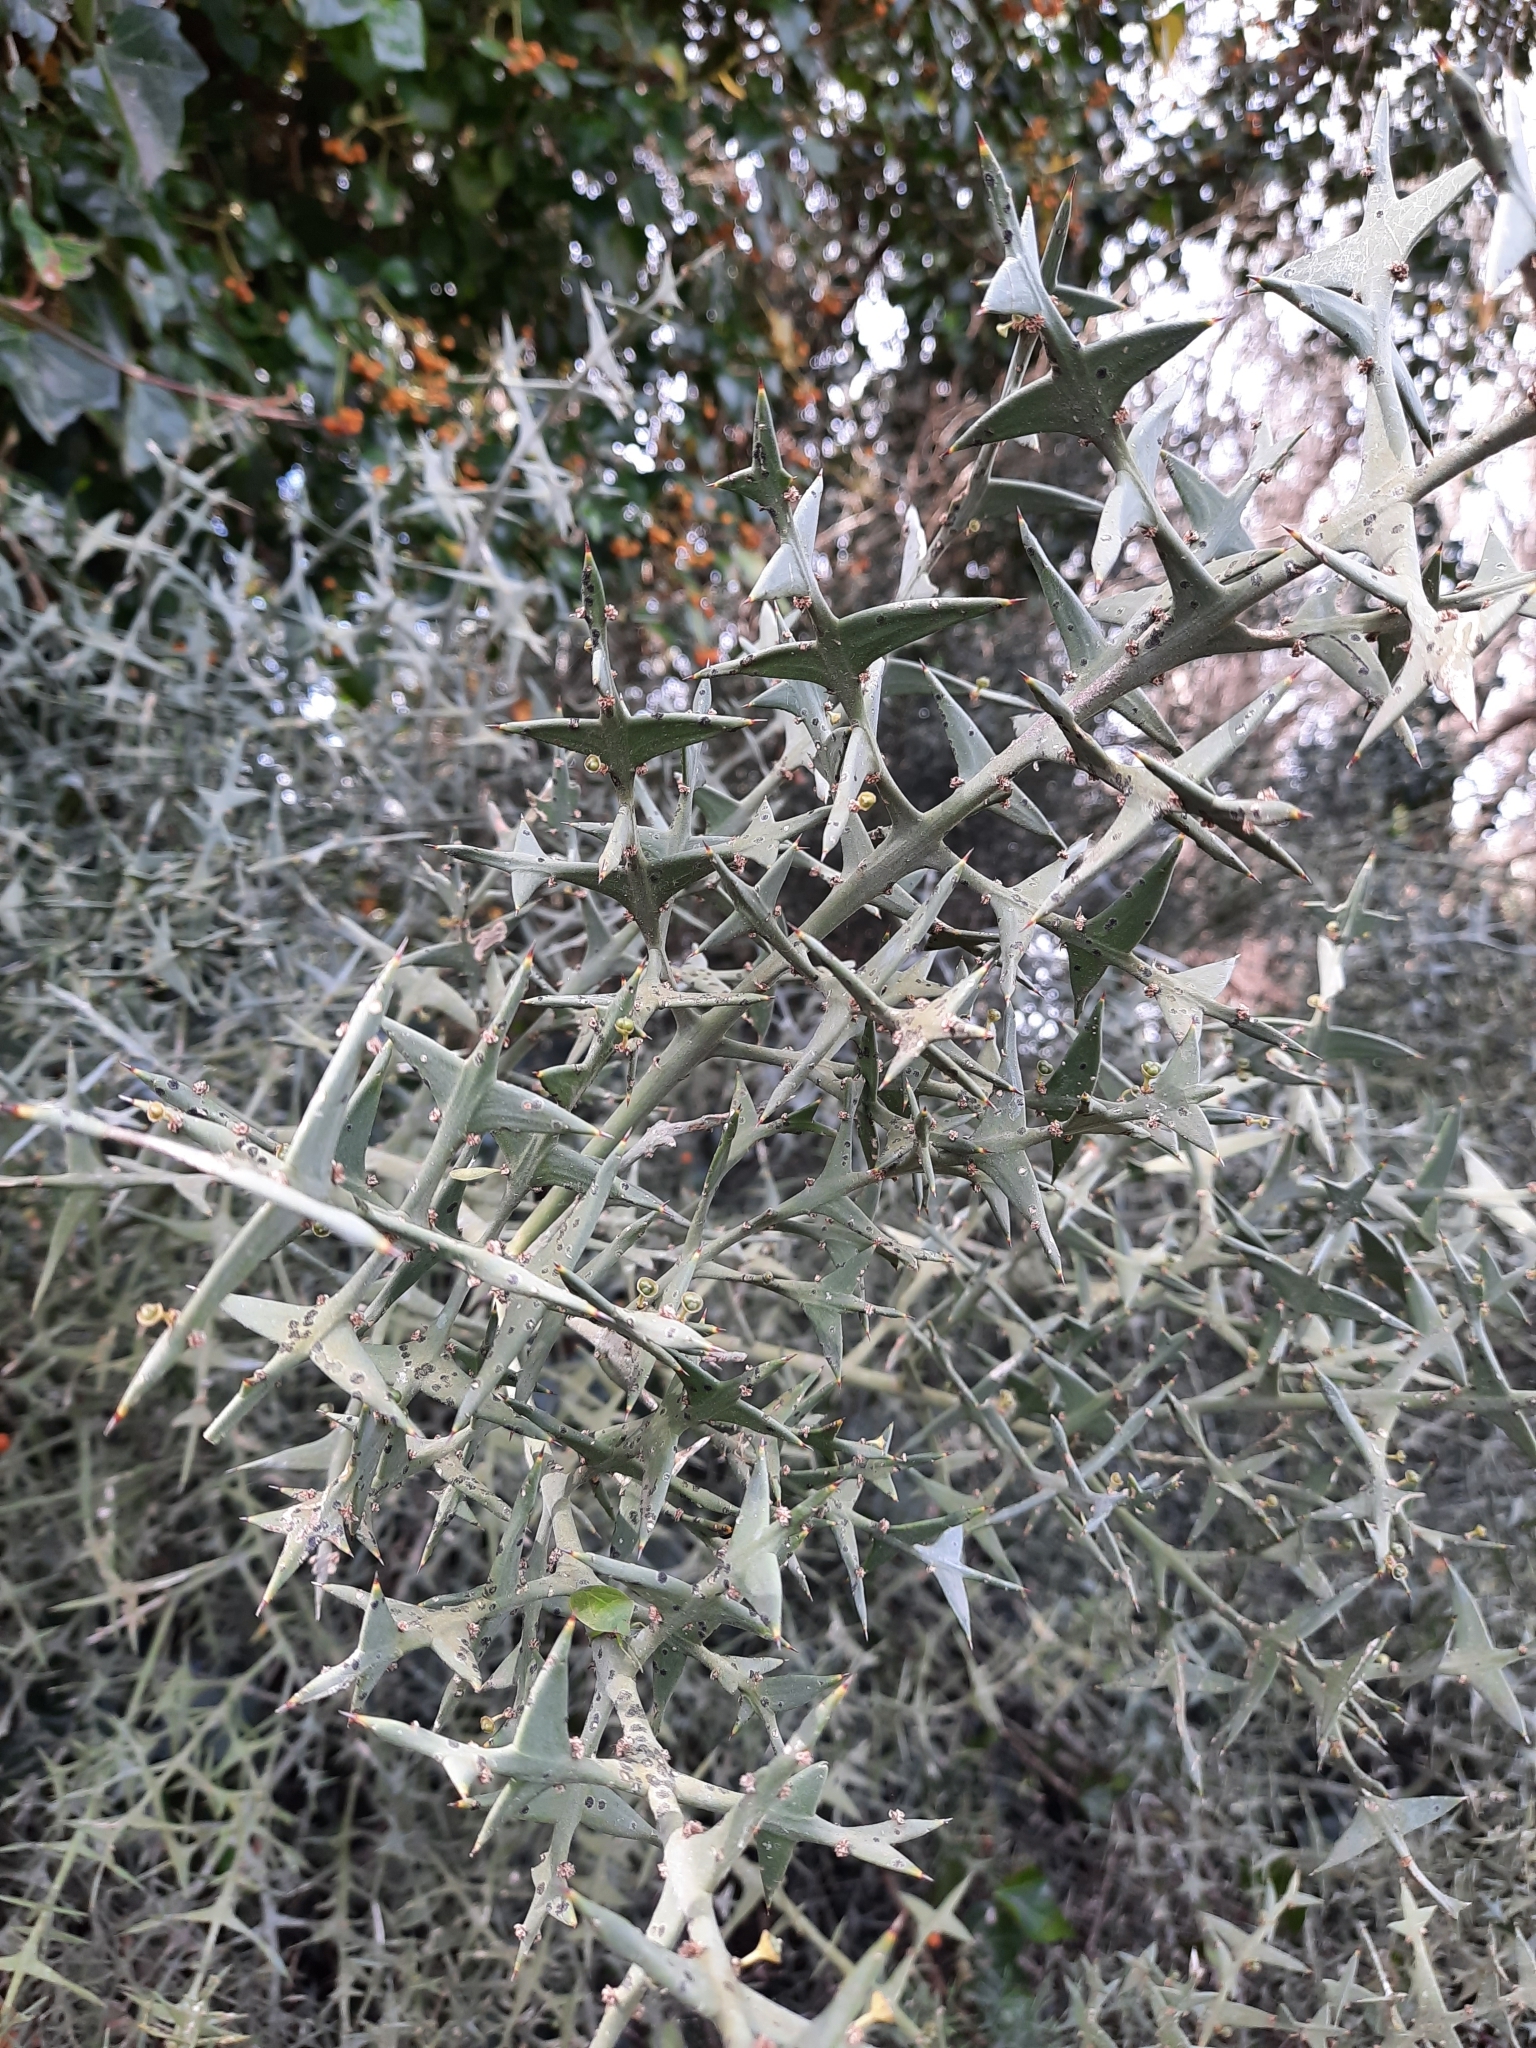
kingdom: Plantae
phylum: Tracheophyta
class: Magnoliopsida
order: Rosales
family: Rhamnaceae
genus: Colletia
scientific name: Colletia paradoxa
